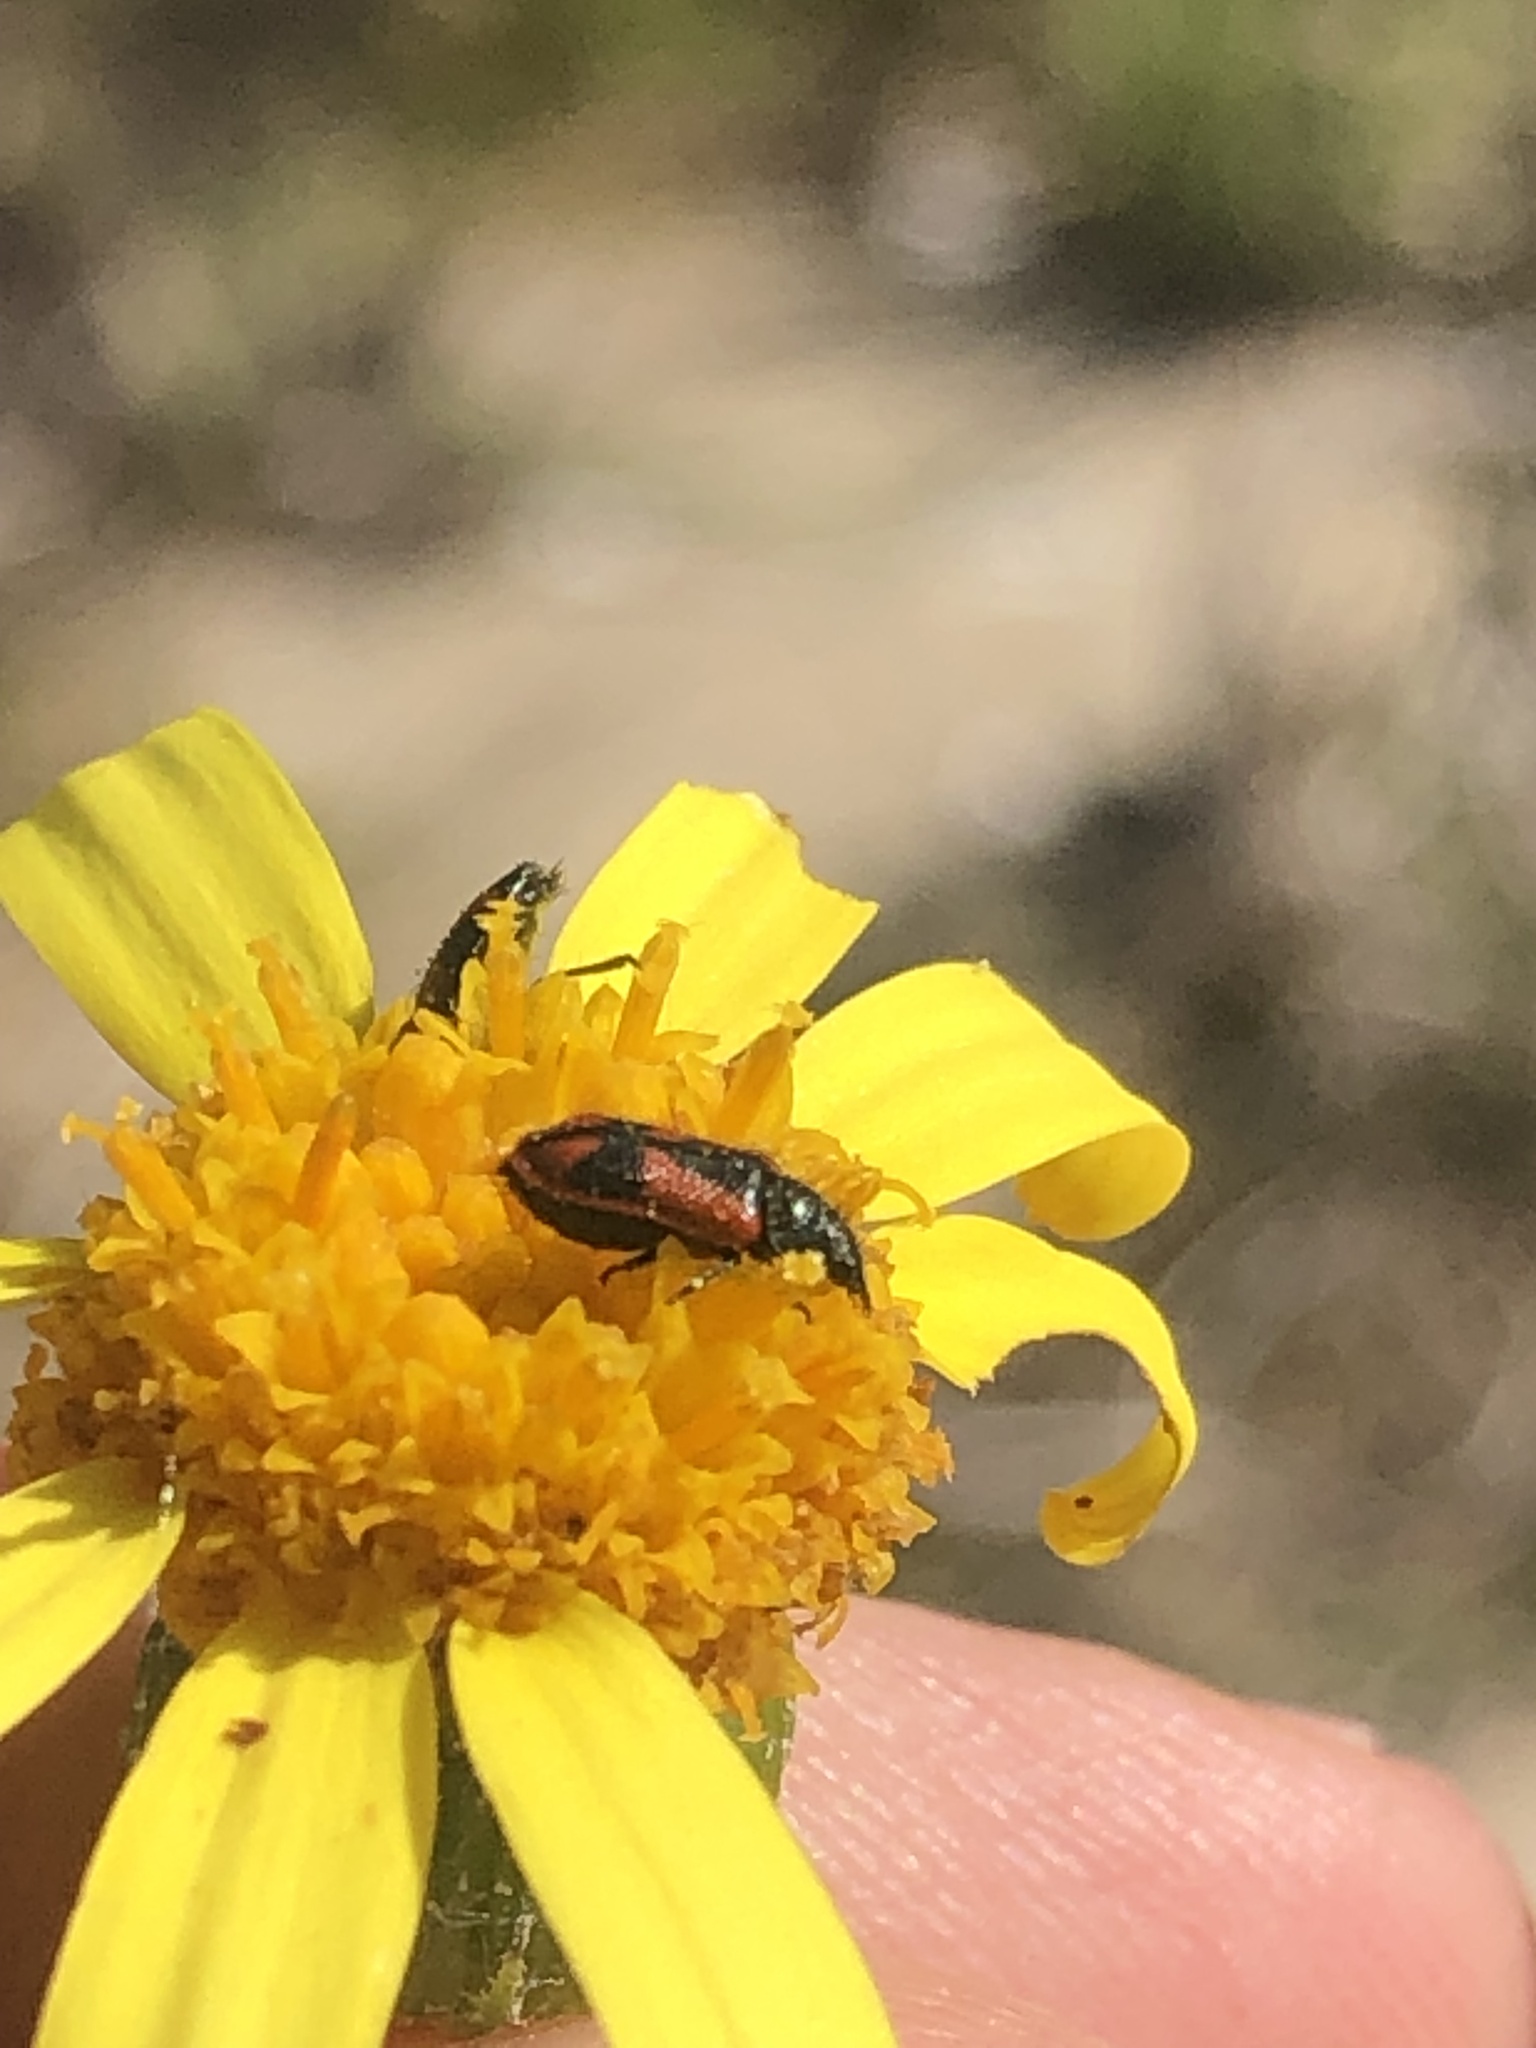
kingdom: Animalia
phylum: Arthropoda
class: Insecta
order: Coleoptera
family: Melyridae
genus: Arthrobrachus
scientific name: Arthrobrachus nigromaculatus
